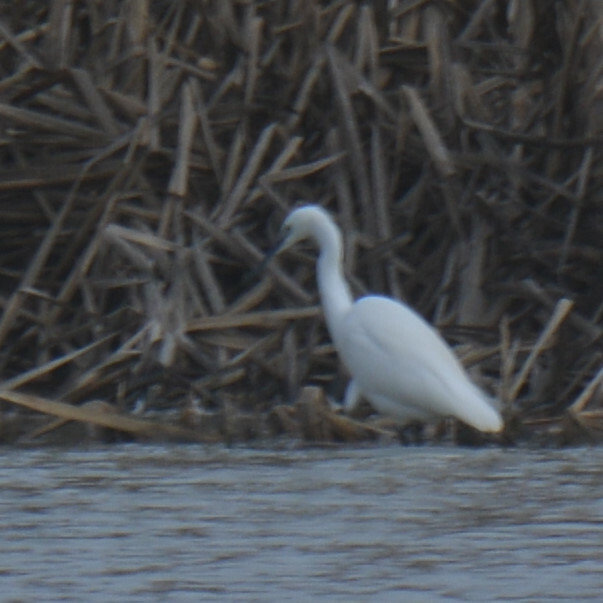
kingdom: Animalia
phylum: Chordata
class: Aves
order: Pelecaniformes
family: Ardeidae
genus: Egretta
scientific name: Egretta garzetta
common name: Little egret
